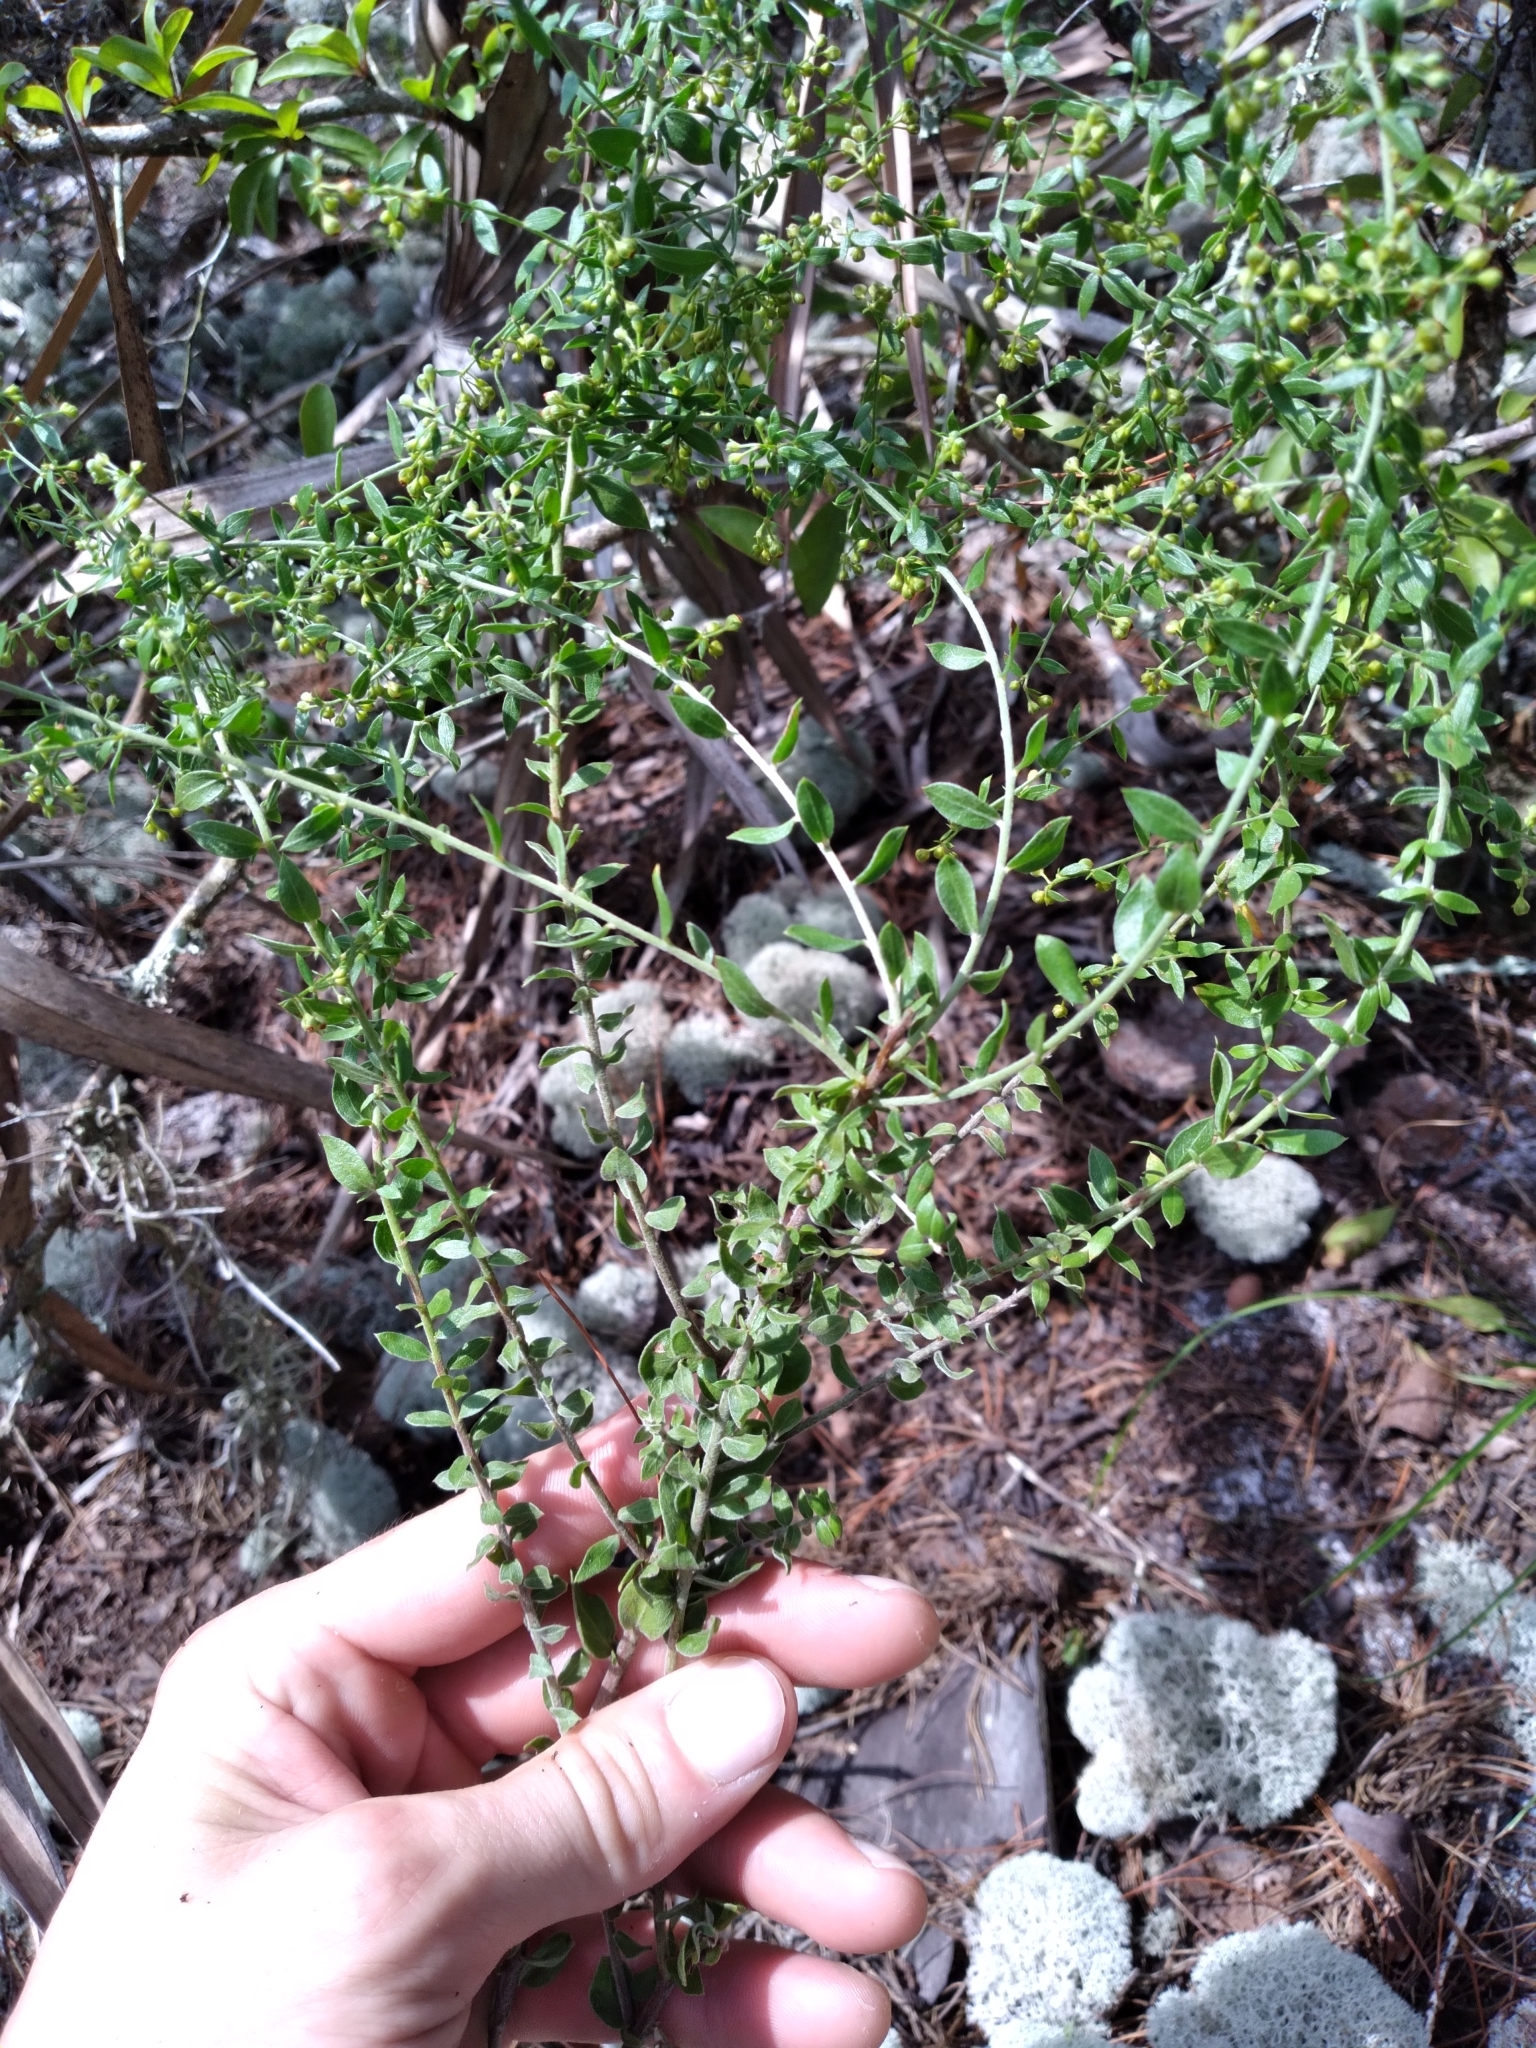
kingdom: Plantae
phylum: Tracheophyta
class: Magnoliopsida
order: Malvales
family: Cistaceae
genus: Lechea
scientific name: Lechea cernua
